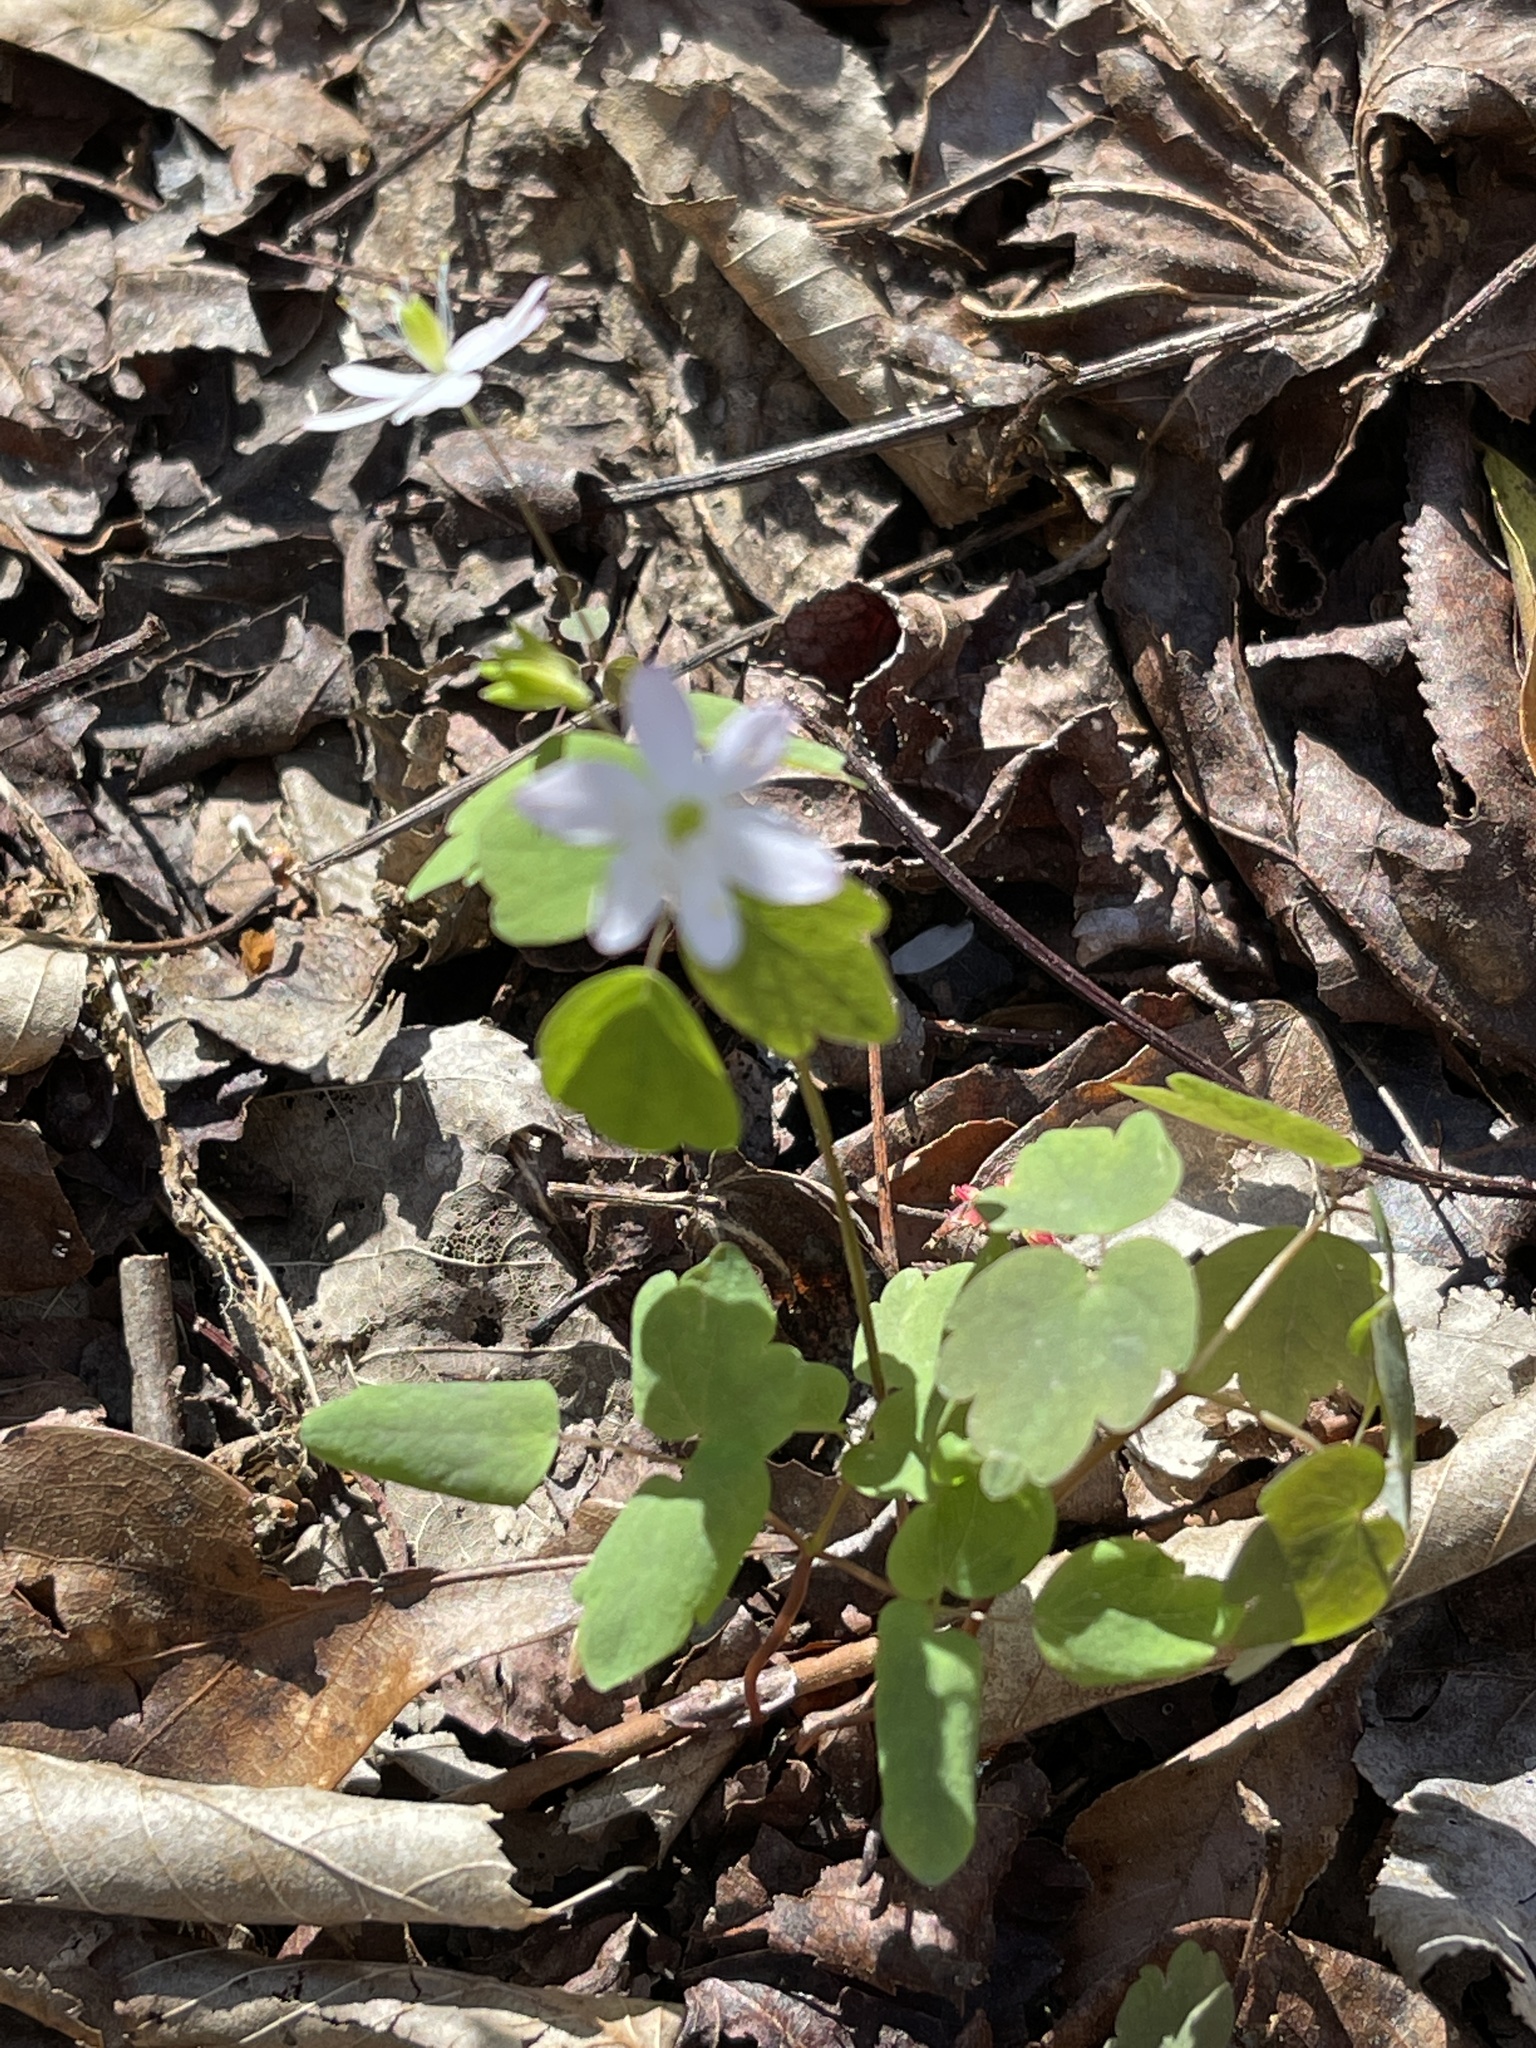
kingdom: Plantae
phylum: Tracheophyta
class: Magnoliopsida
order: Ranunculales
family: Ranunculaceae
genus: Thalictrum
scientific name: Thalictrum thalictroides
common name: Rue-anemone
